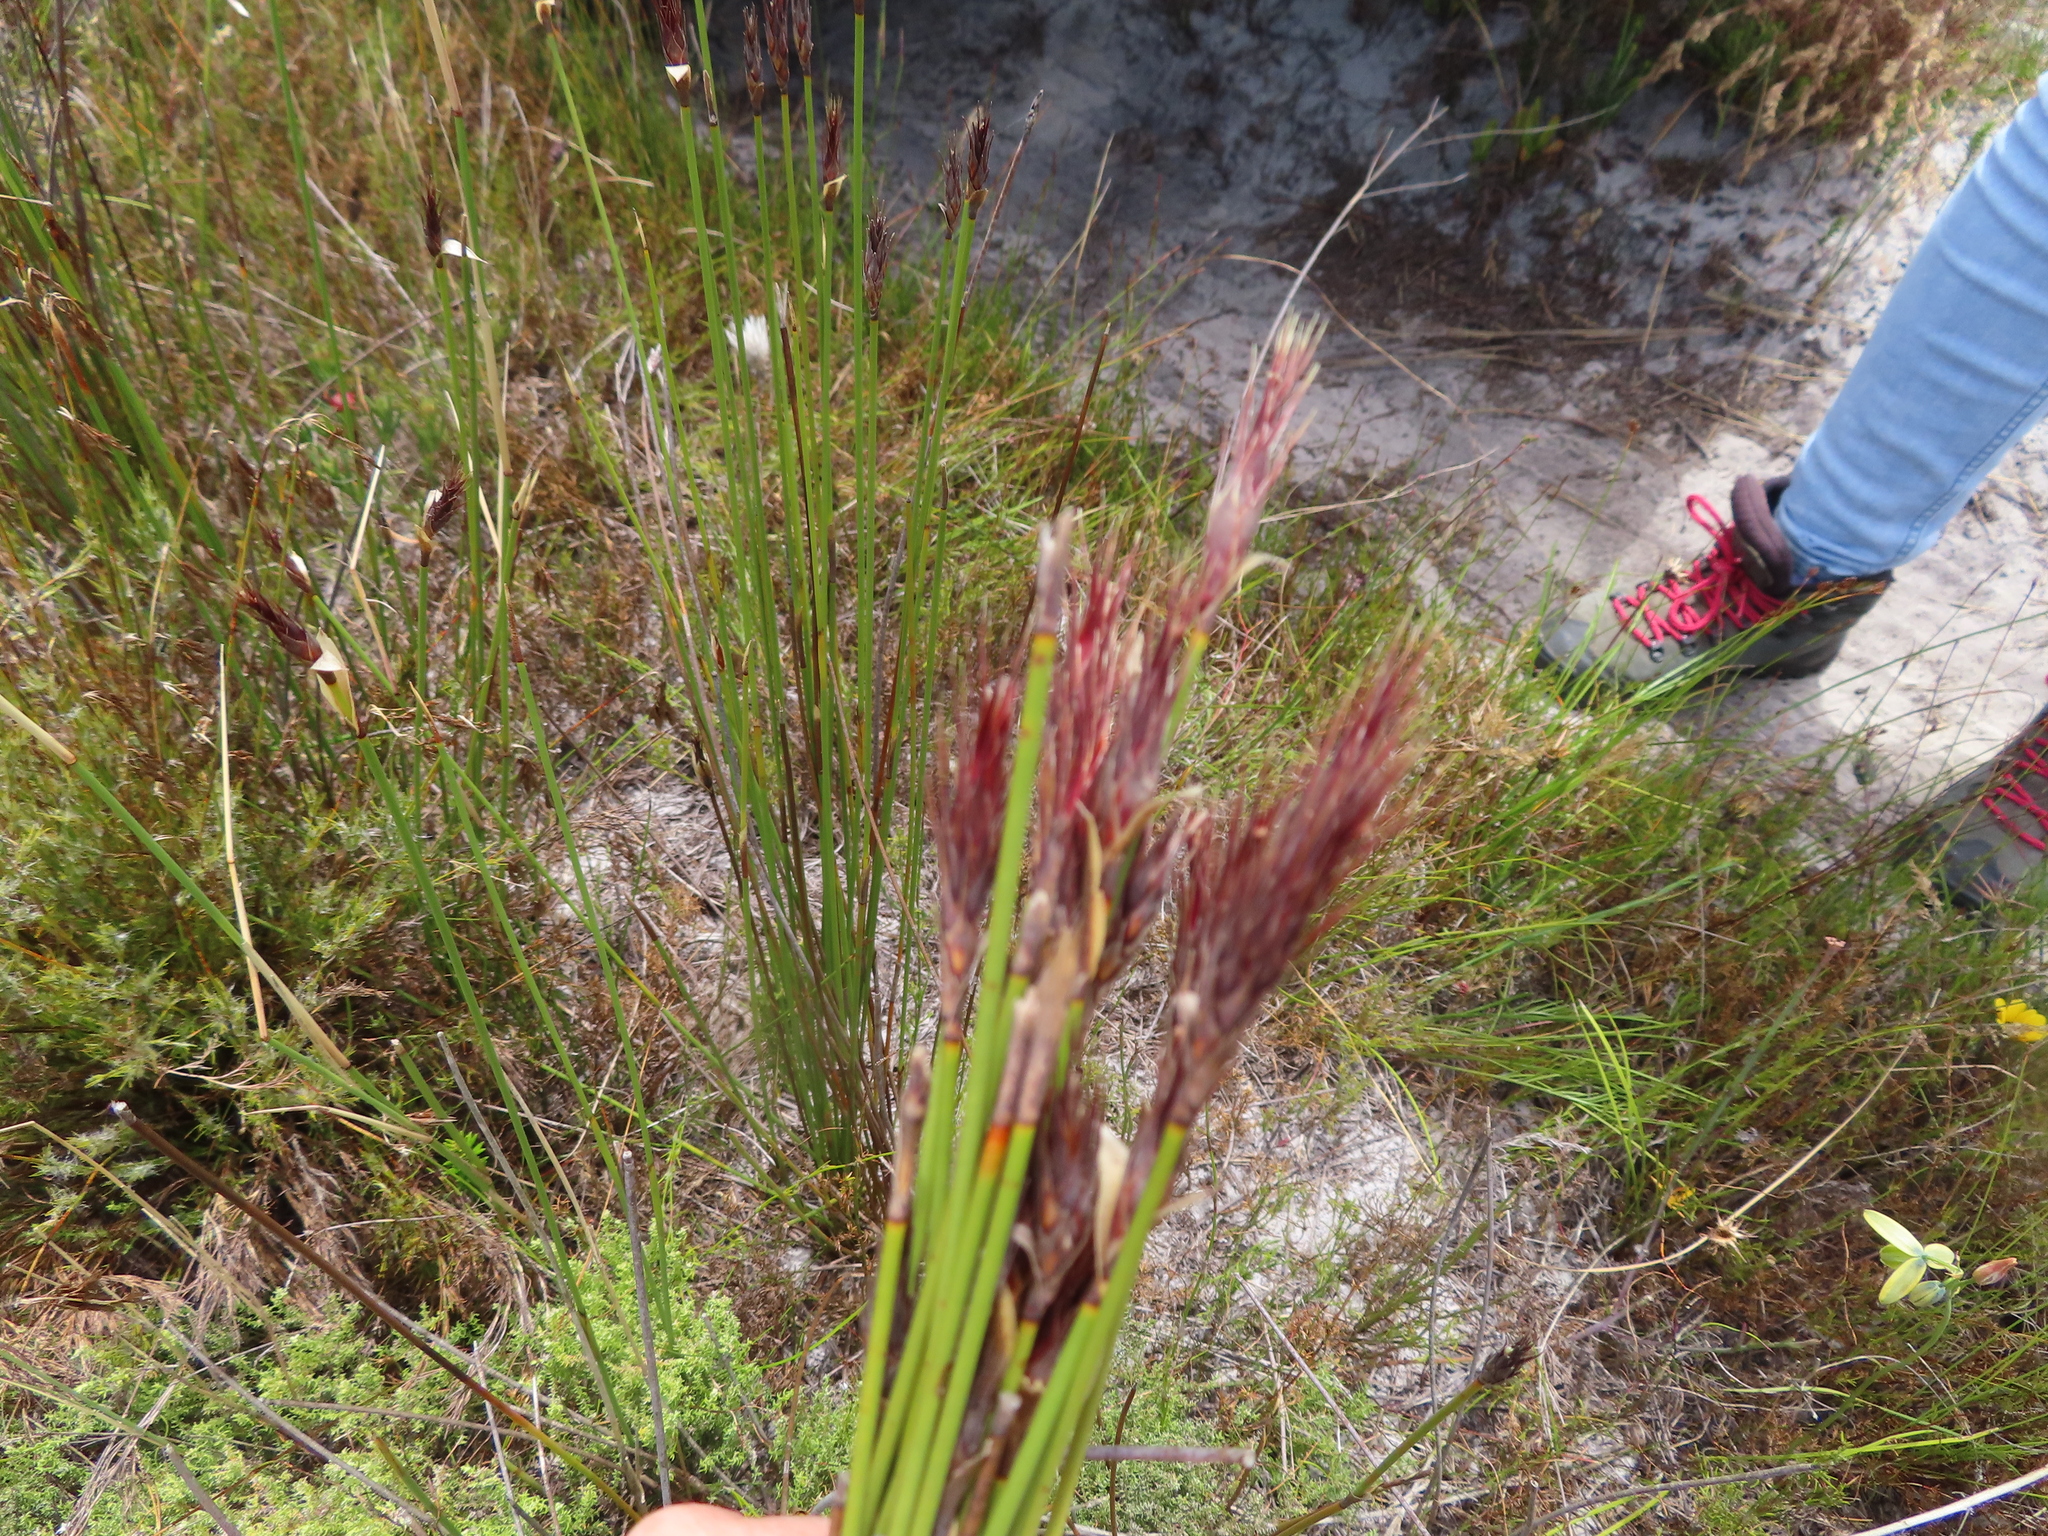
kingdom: Plantae
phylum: Tracheophyta
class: Liliopsida
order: Poales
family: Restionaceae
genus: Hypodiscus
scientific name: Hypodiscus aristatus
